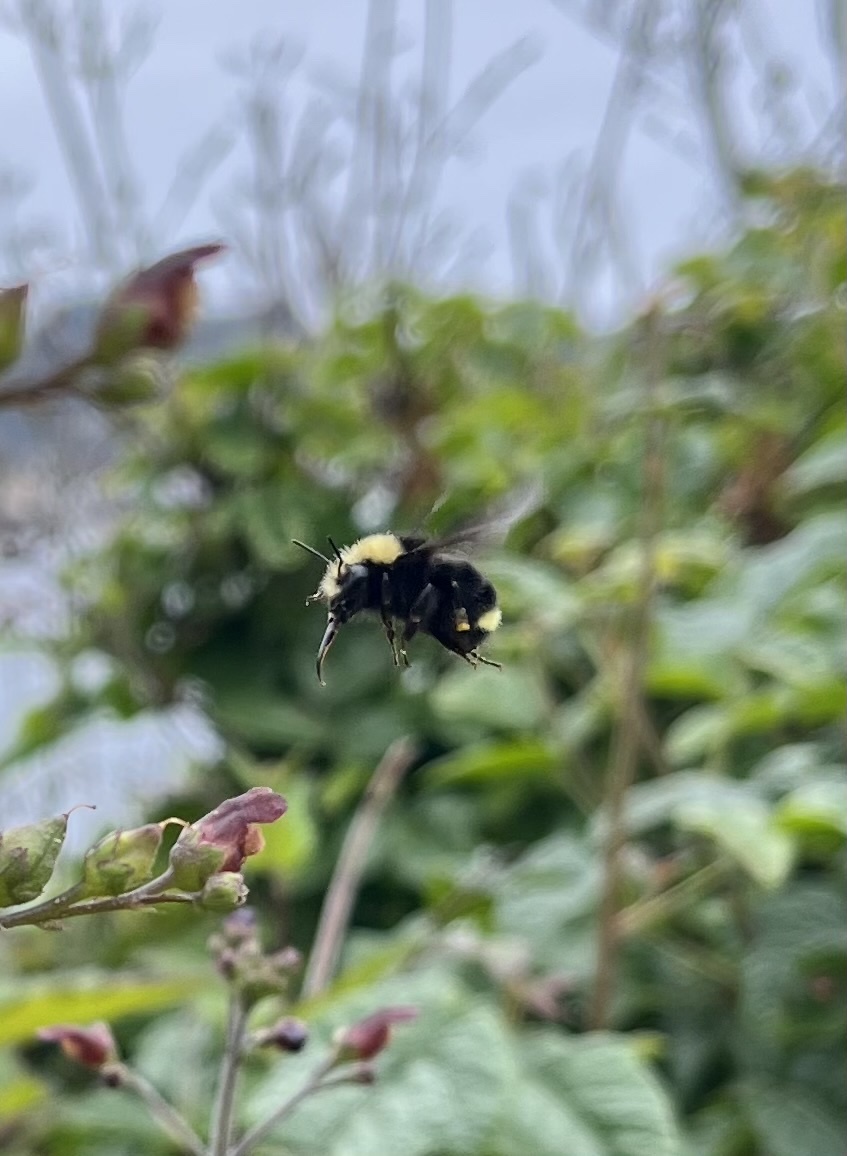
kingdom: Animalia
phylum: Arthropoda
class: Insecta
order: Hymenoptera
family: Apidae
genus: Bombus
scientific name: Bombus vosnesenskii
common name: Vosnesensky bumble bee
